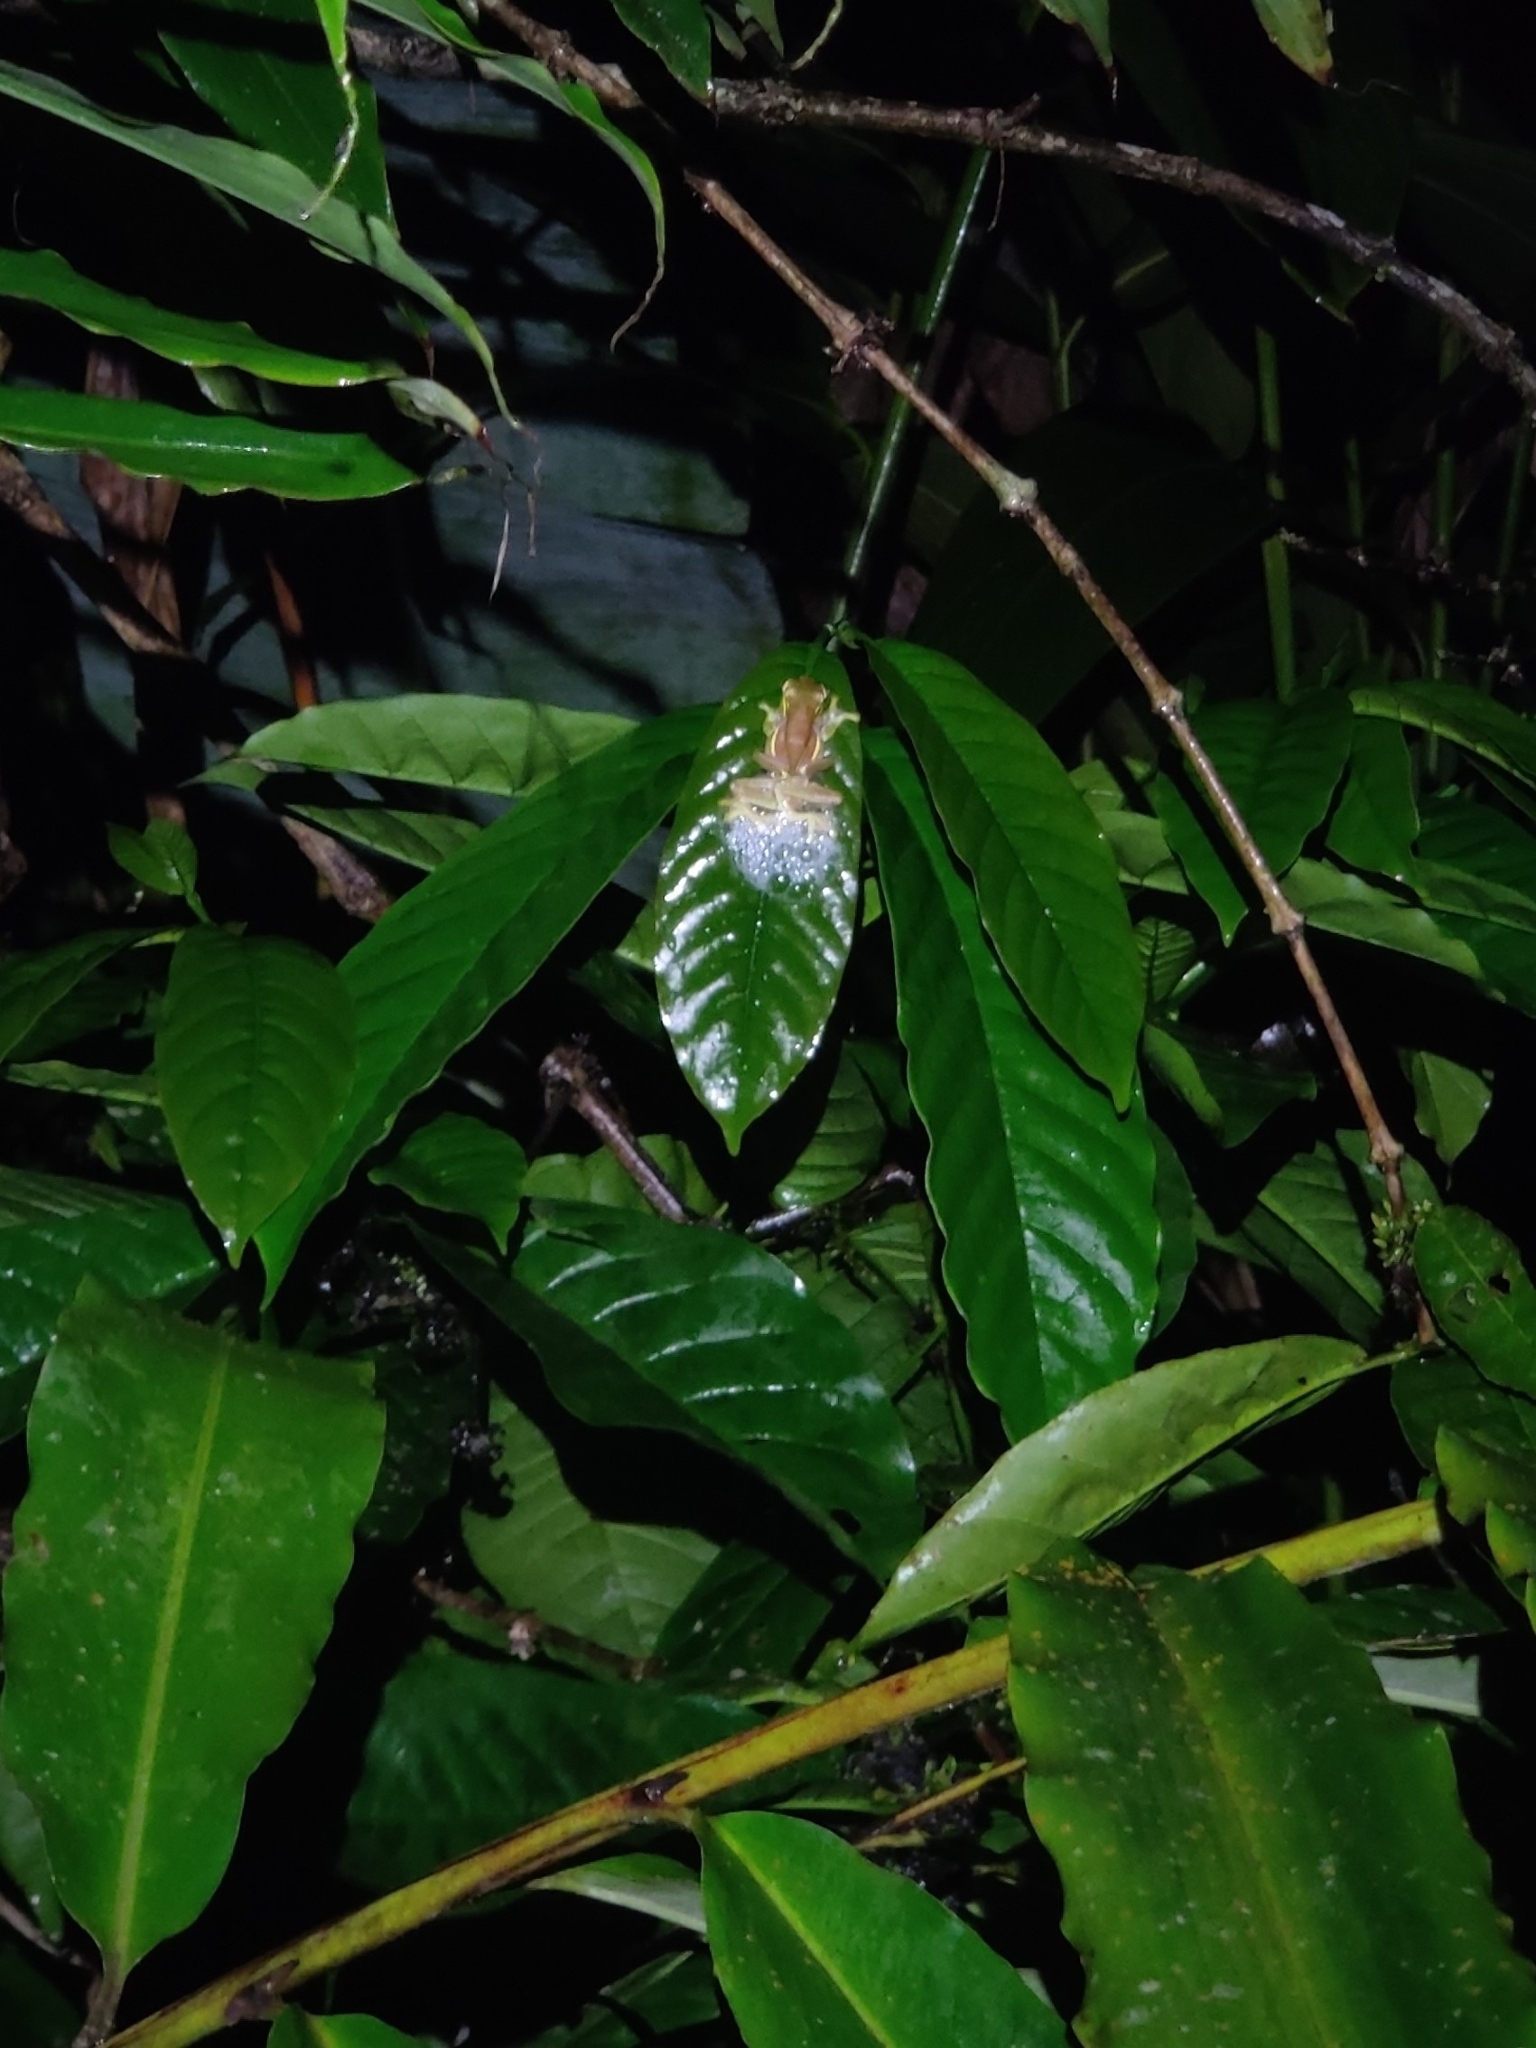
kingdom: Animalia
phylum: Chordata
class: Amphibia
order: Anura
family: Rhacophoridae
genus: Rhacophorus
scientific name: Rhacophorus lateralis
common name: Boulenger's tree frog
